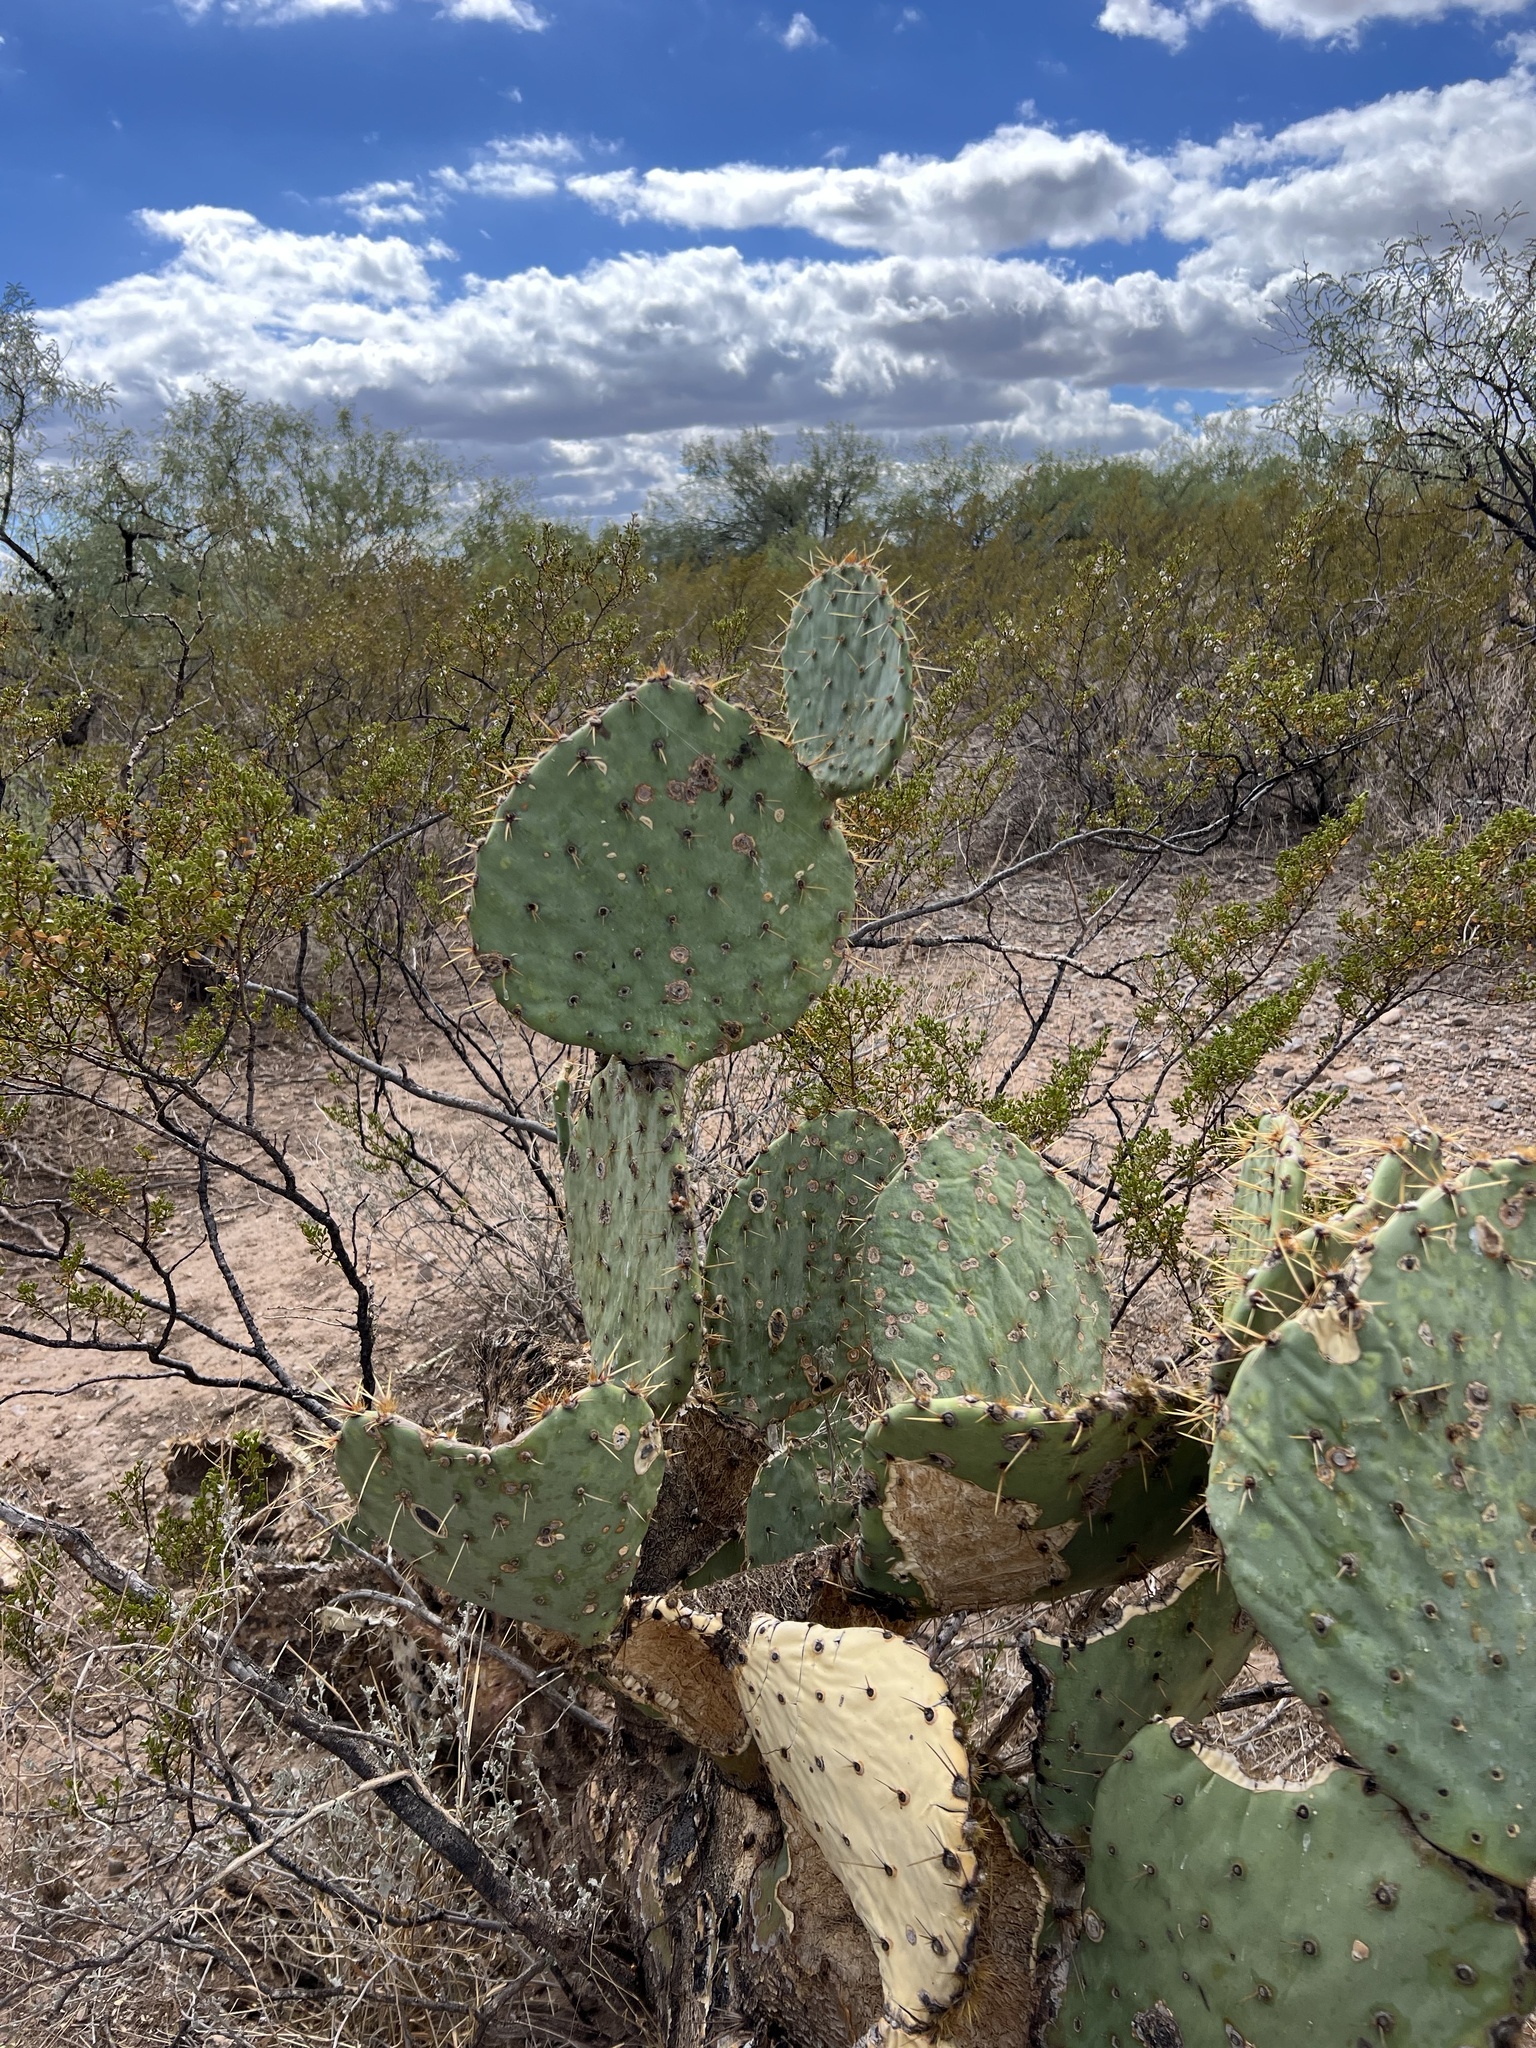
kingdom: Plantae
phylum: Tracheophyta
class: Magnoliopsida
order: Caryophyllales
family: Cactaceae
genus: Opuntia
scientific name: Opuntia engelmannii
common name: Cactus-apple
